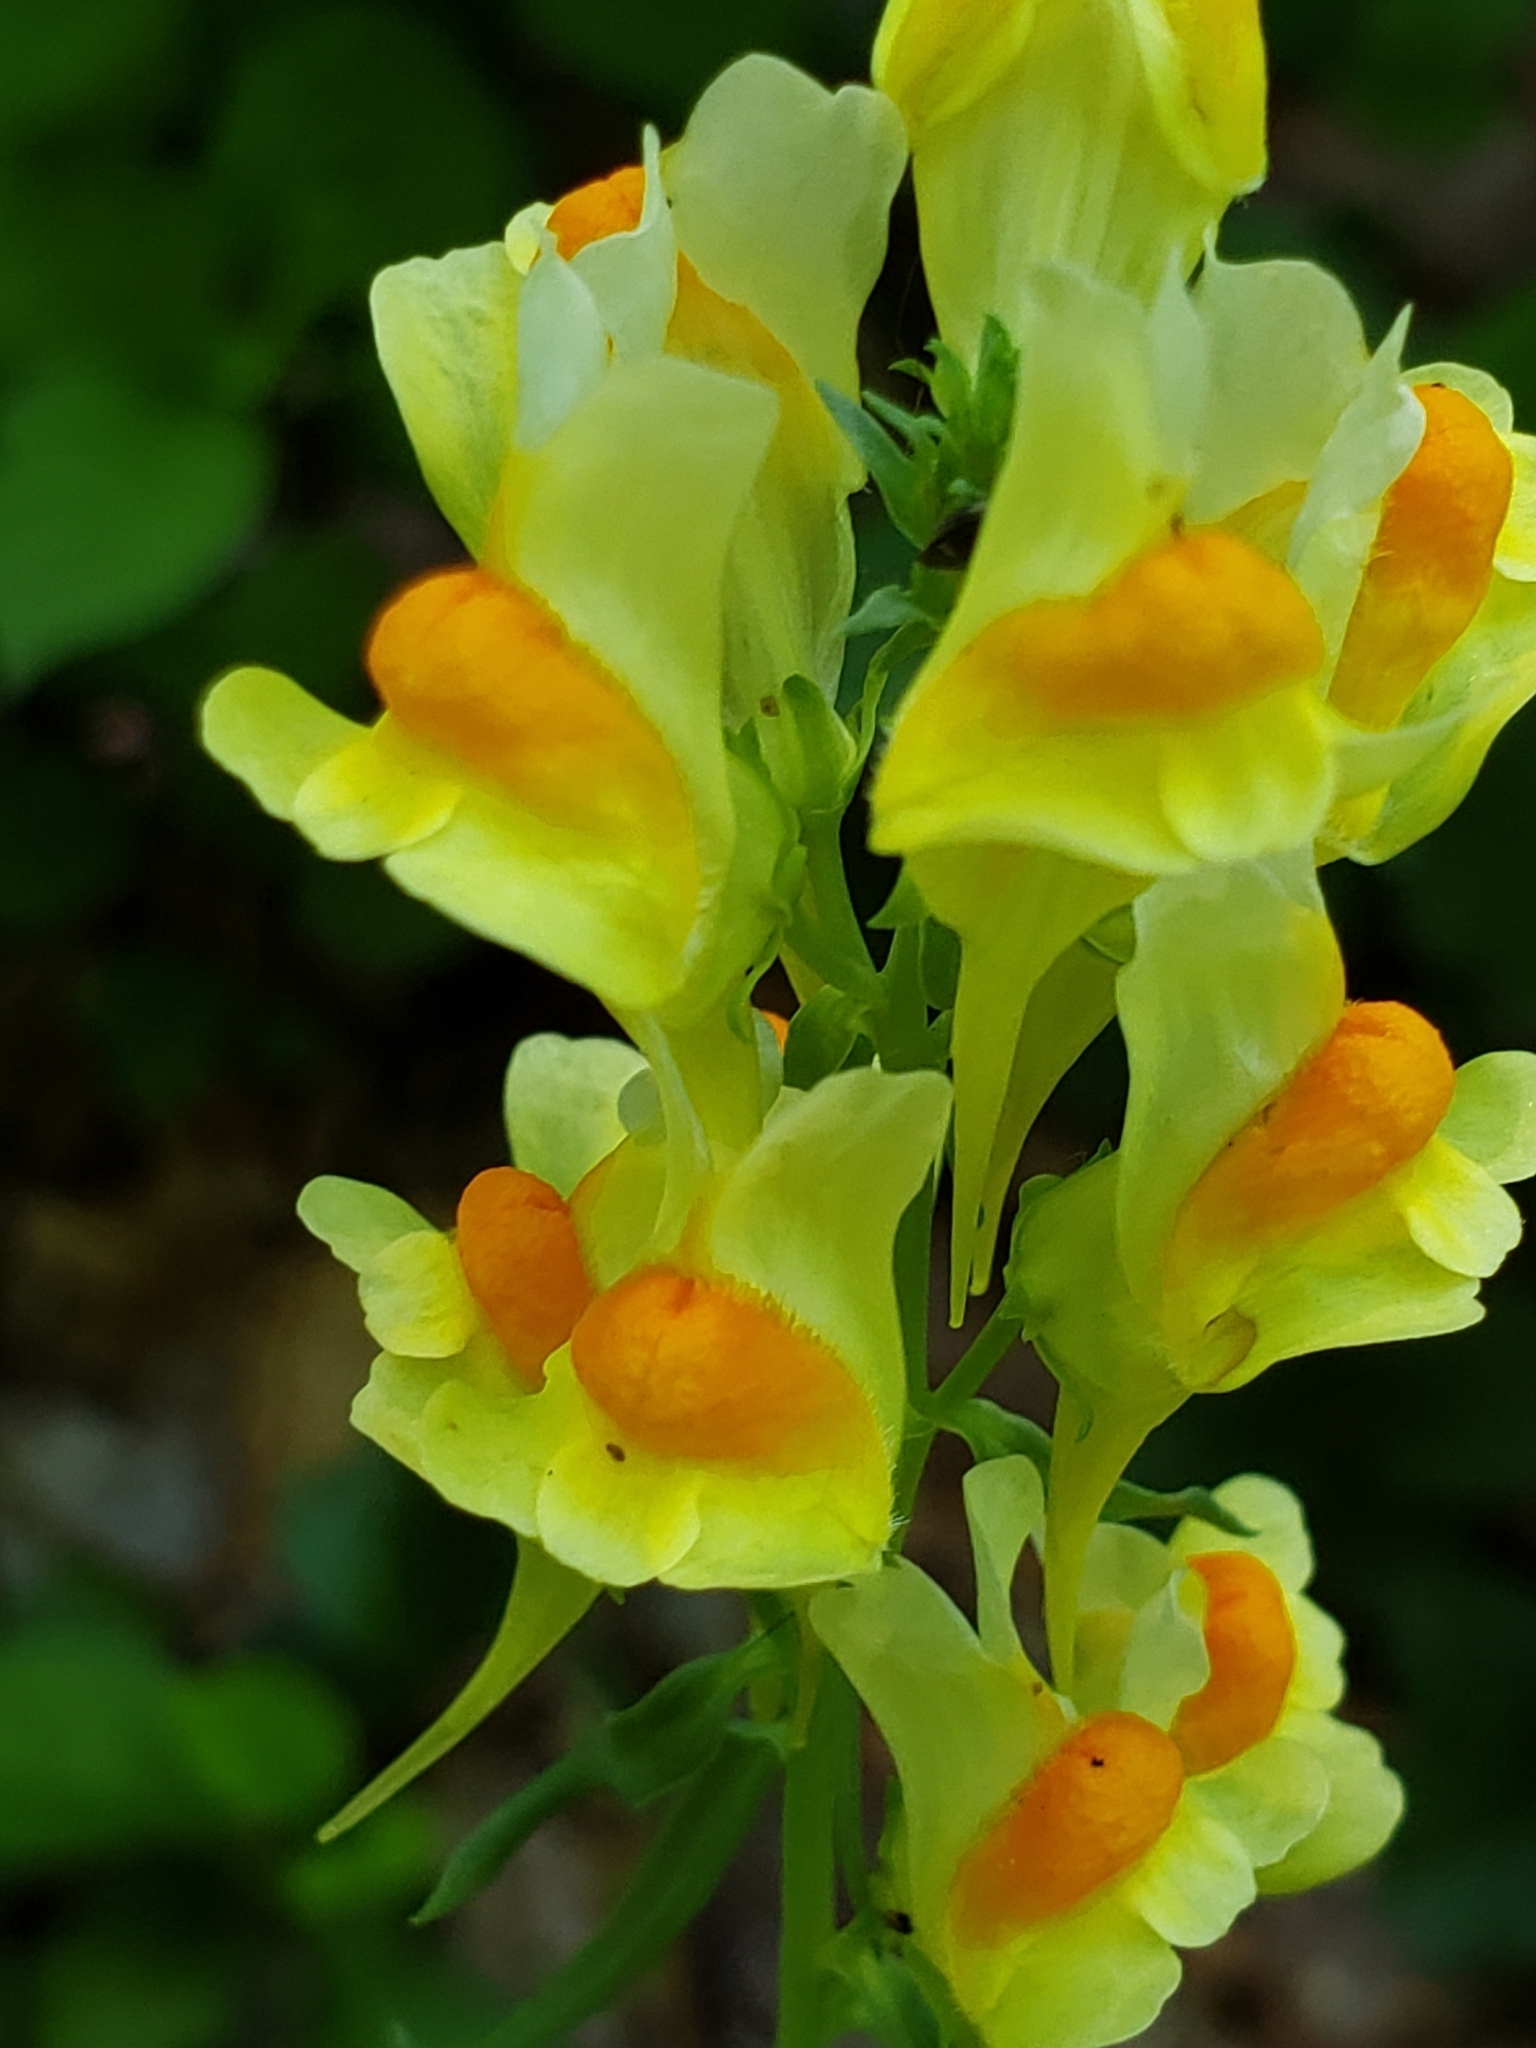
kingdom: Plantae
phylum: Tracheophyta
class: Magnoliopsida
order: Lamiales
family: Plantaginaceae
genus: Linaria
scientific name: Linaria vulgaris
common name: Butter and eggs
